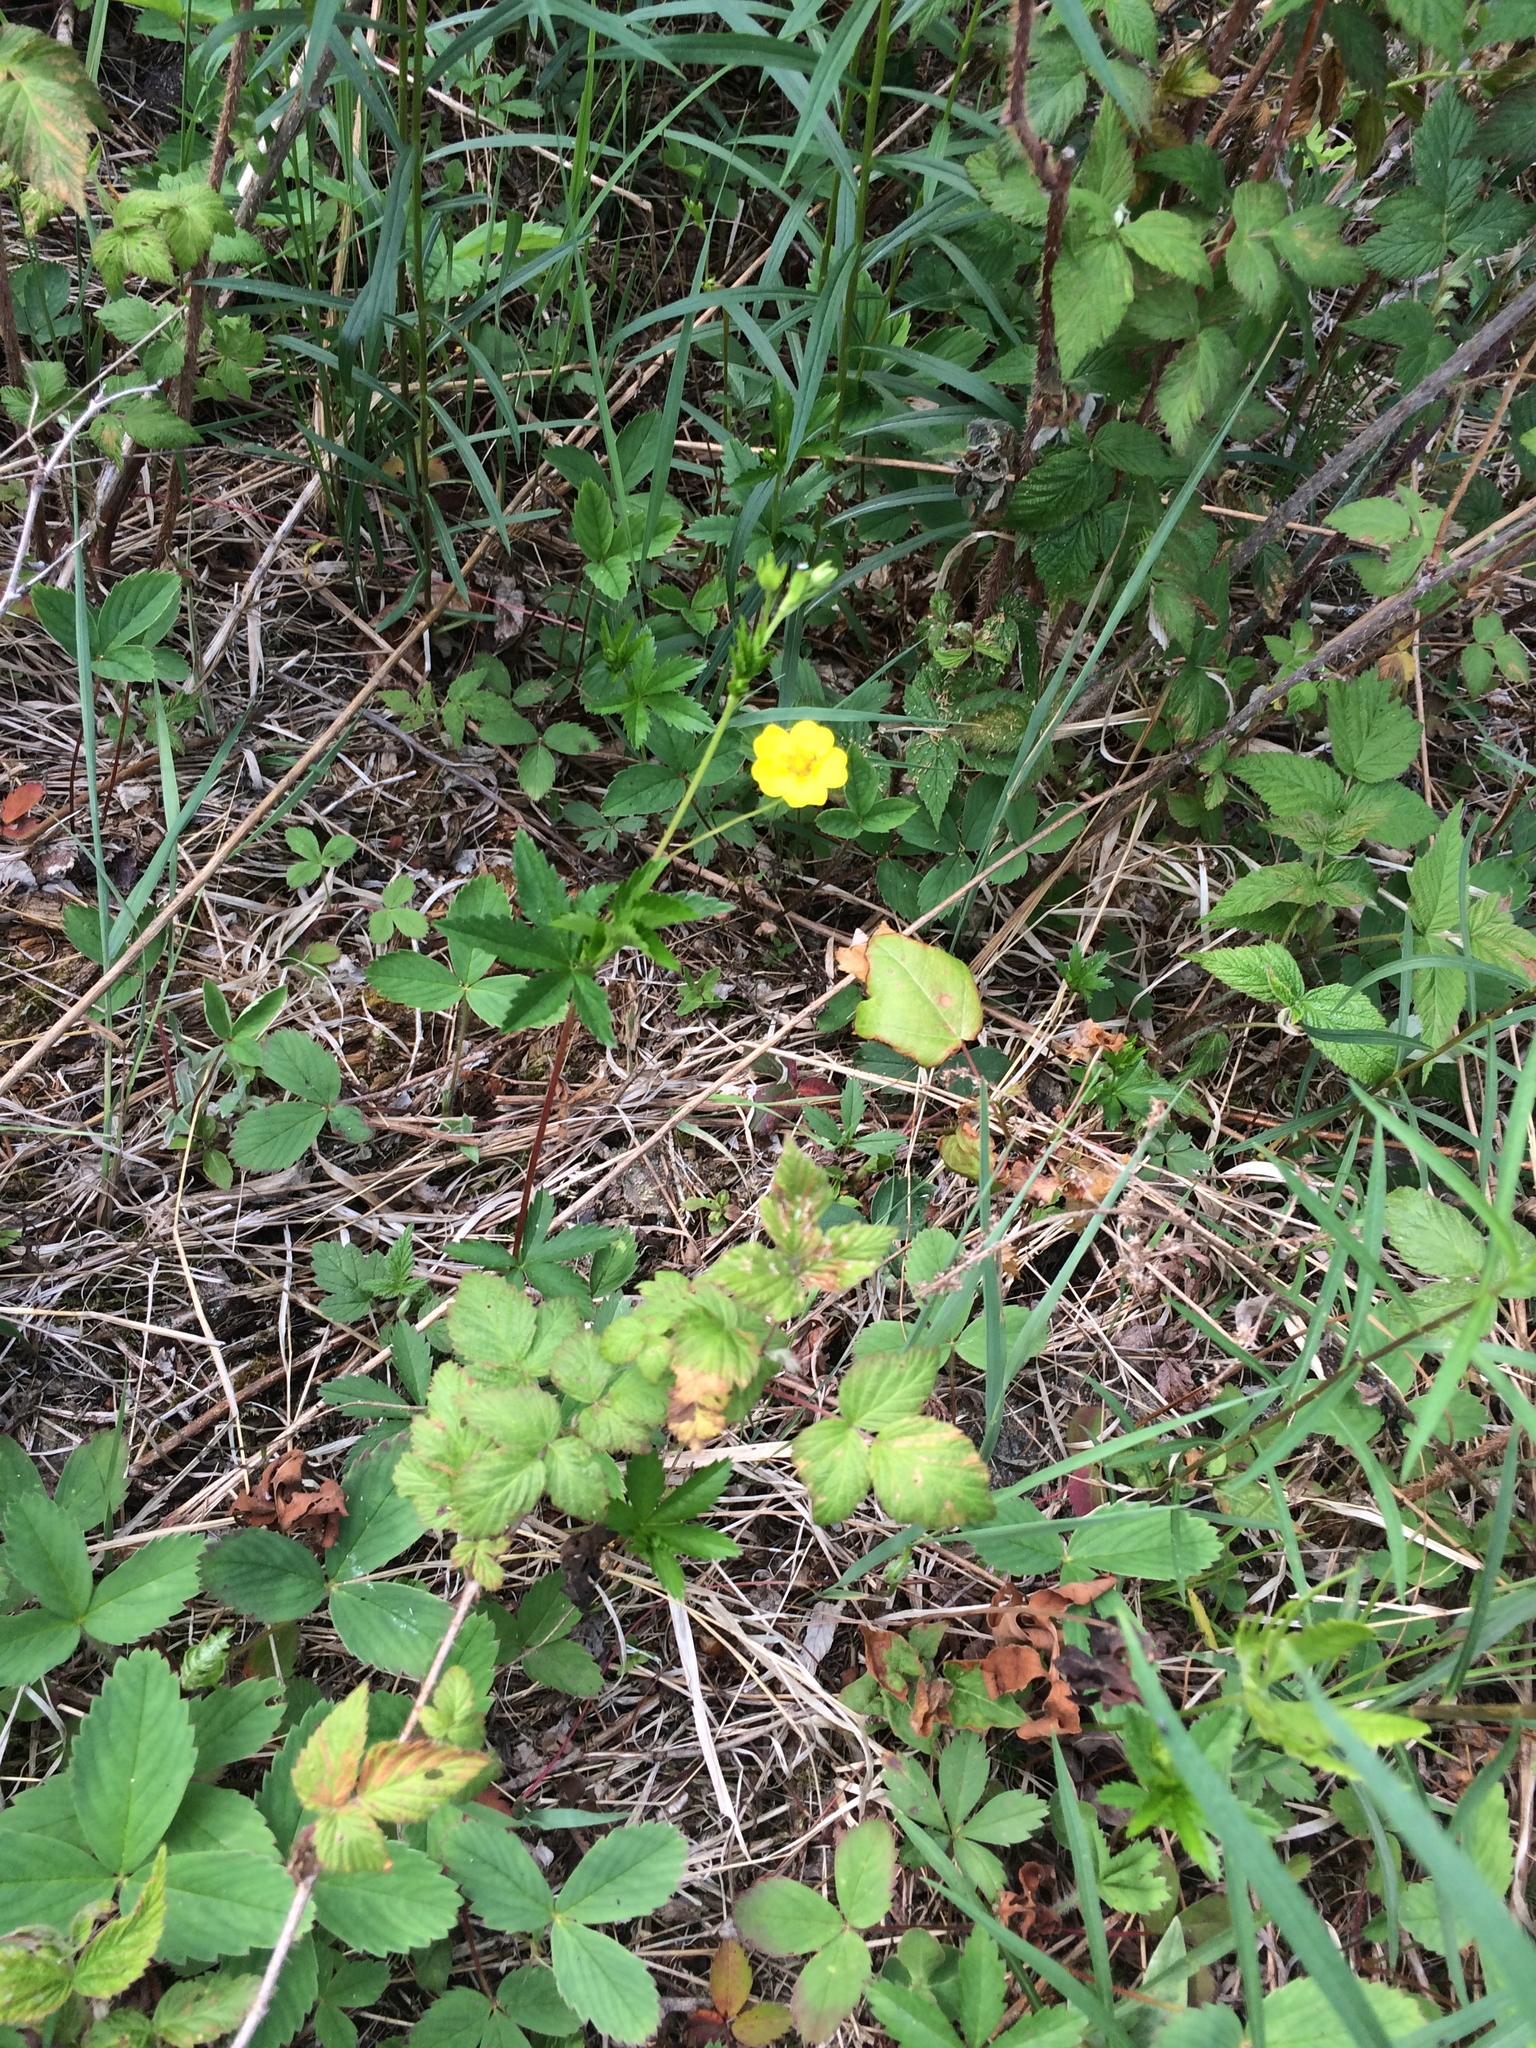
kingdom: Plantae
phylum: Tracheophyta
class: Magnoliopsida
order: Rosales
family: Rosaceae
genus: Potentilla
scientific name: Potentilla simplex
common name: Old field cinquefoil
